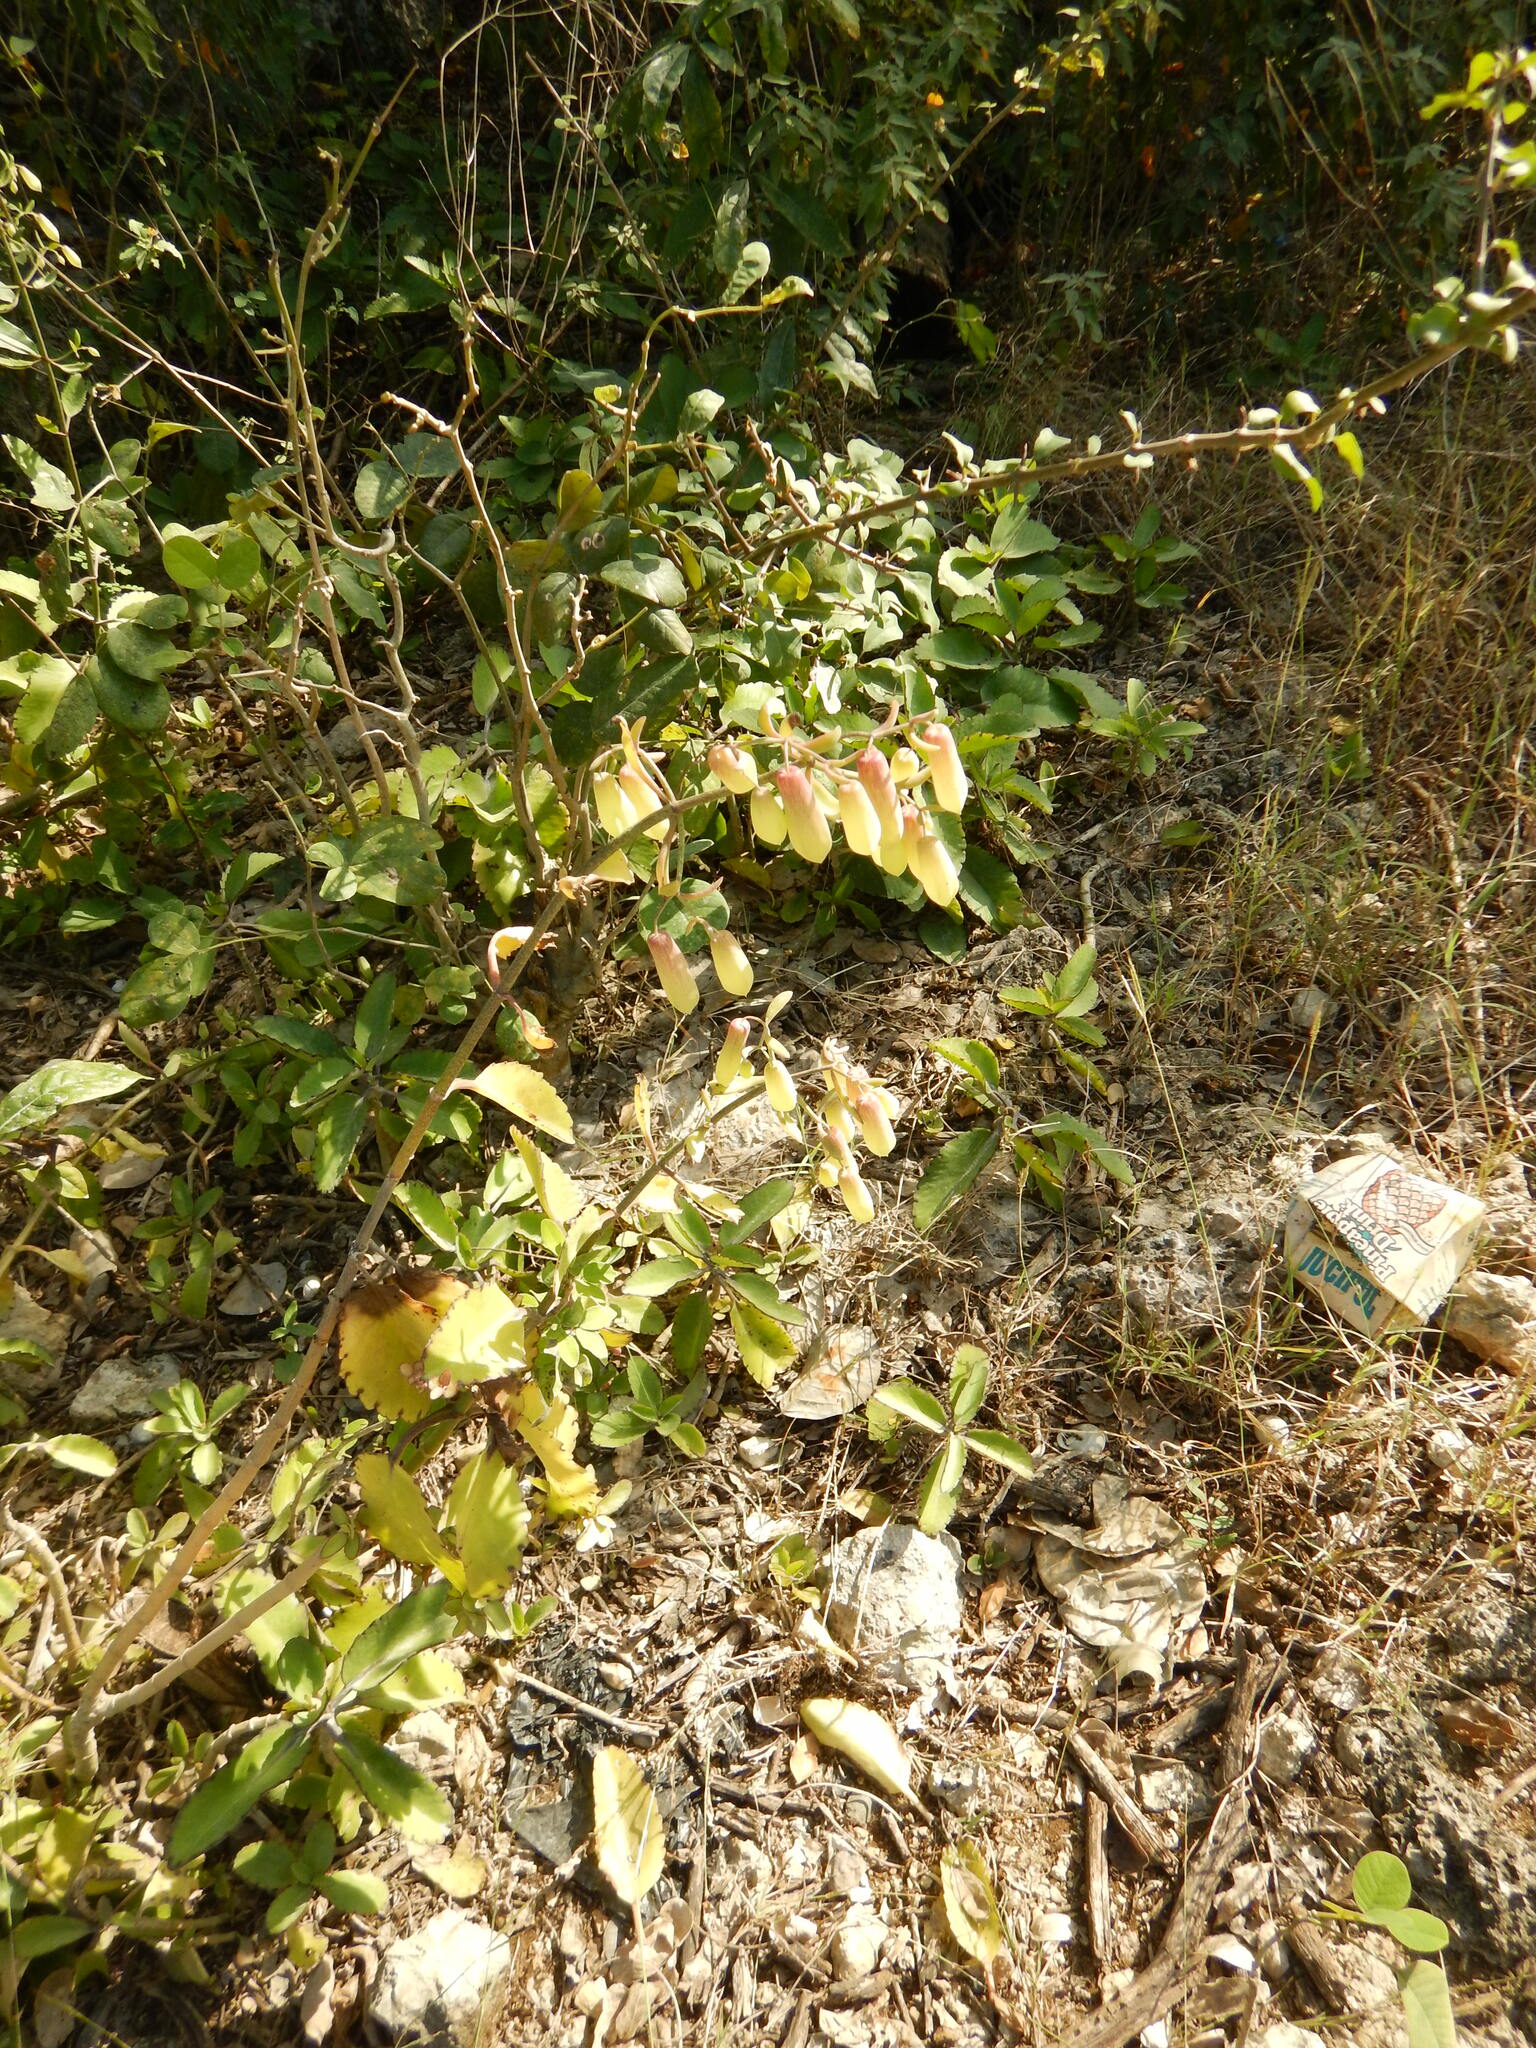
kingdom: Plantae
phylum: Tracheophyta
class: Magnoliopsida
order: Saxifragales
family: Crassulaceae
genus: Kalanchoe
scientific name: Kalanchoe pinnata
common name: Cathedral bells
